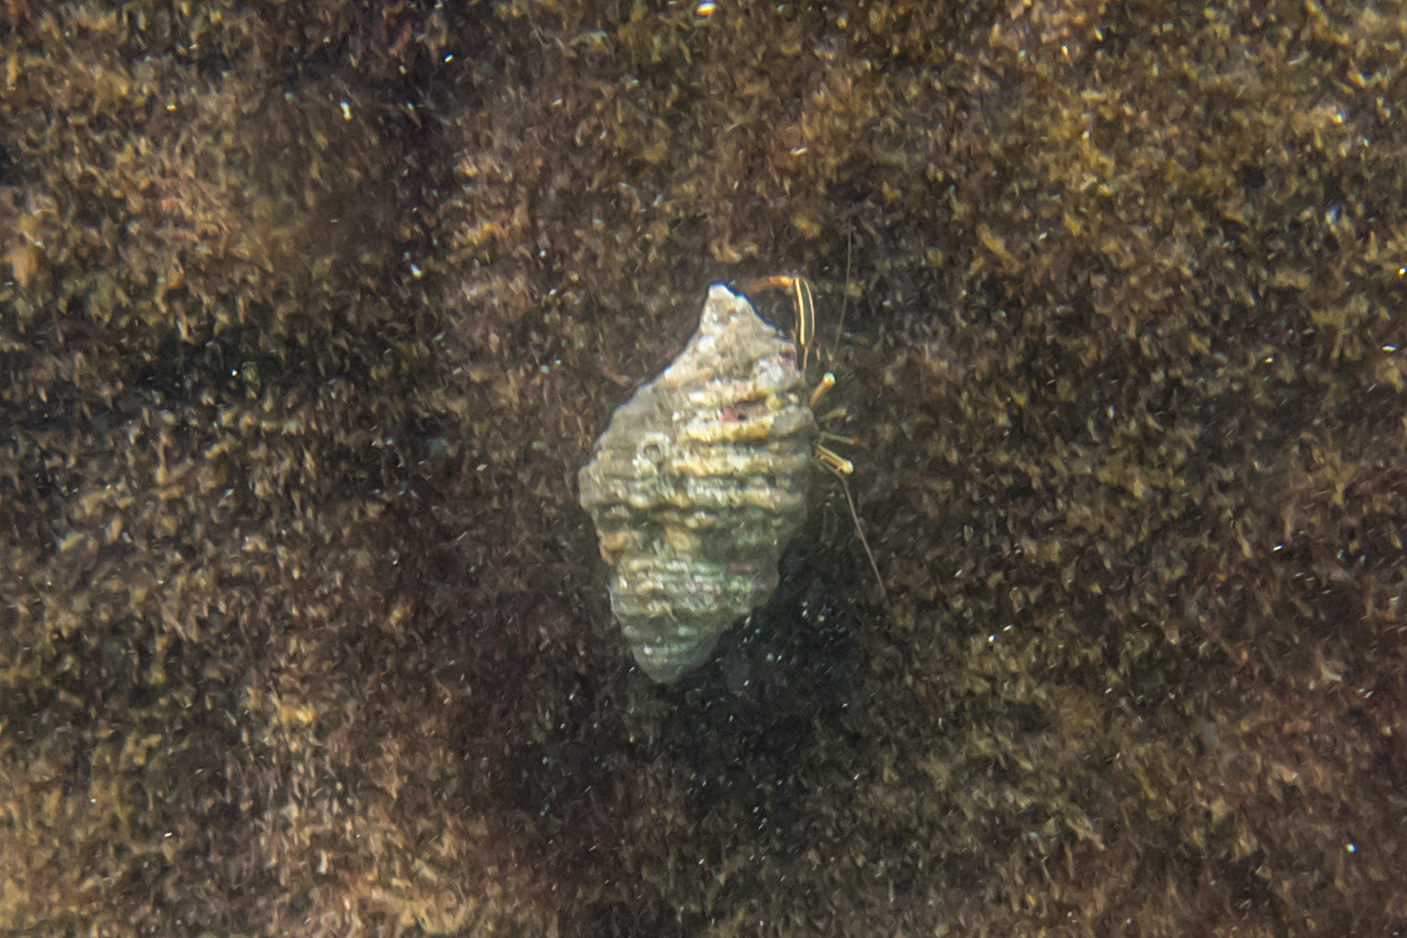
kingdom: Animalia
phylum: Arthropoda
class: Malacostraca
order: Decapoda
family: Diogenidae
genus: Clibanarius
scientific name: Clibanarius taeniatus
